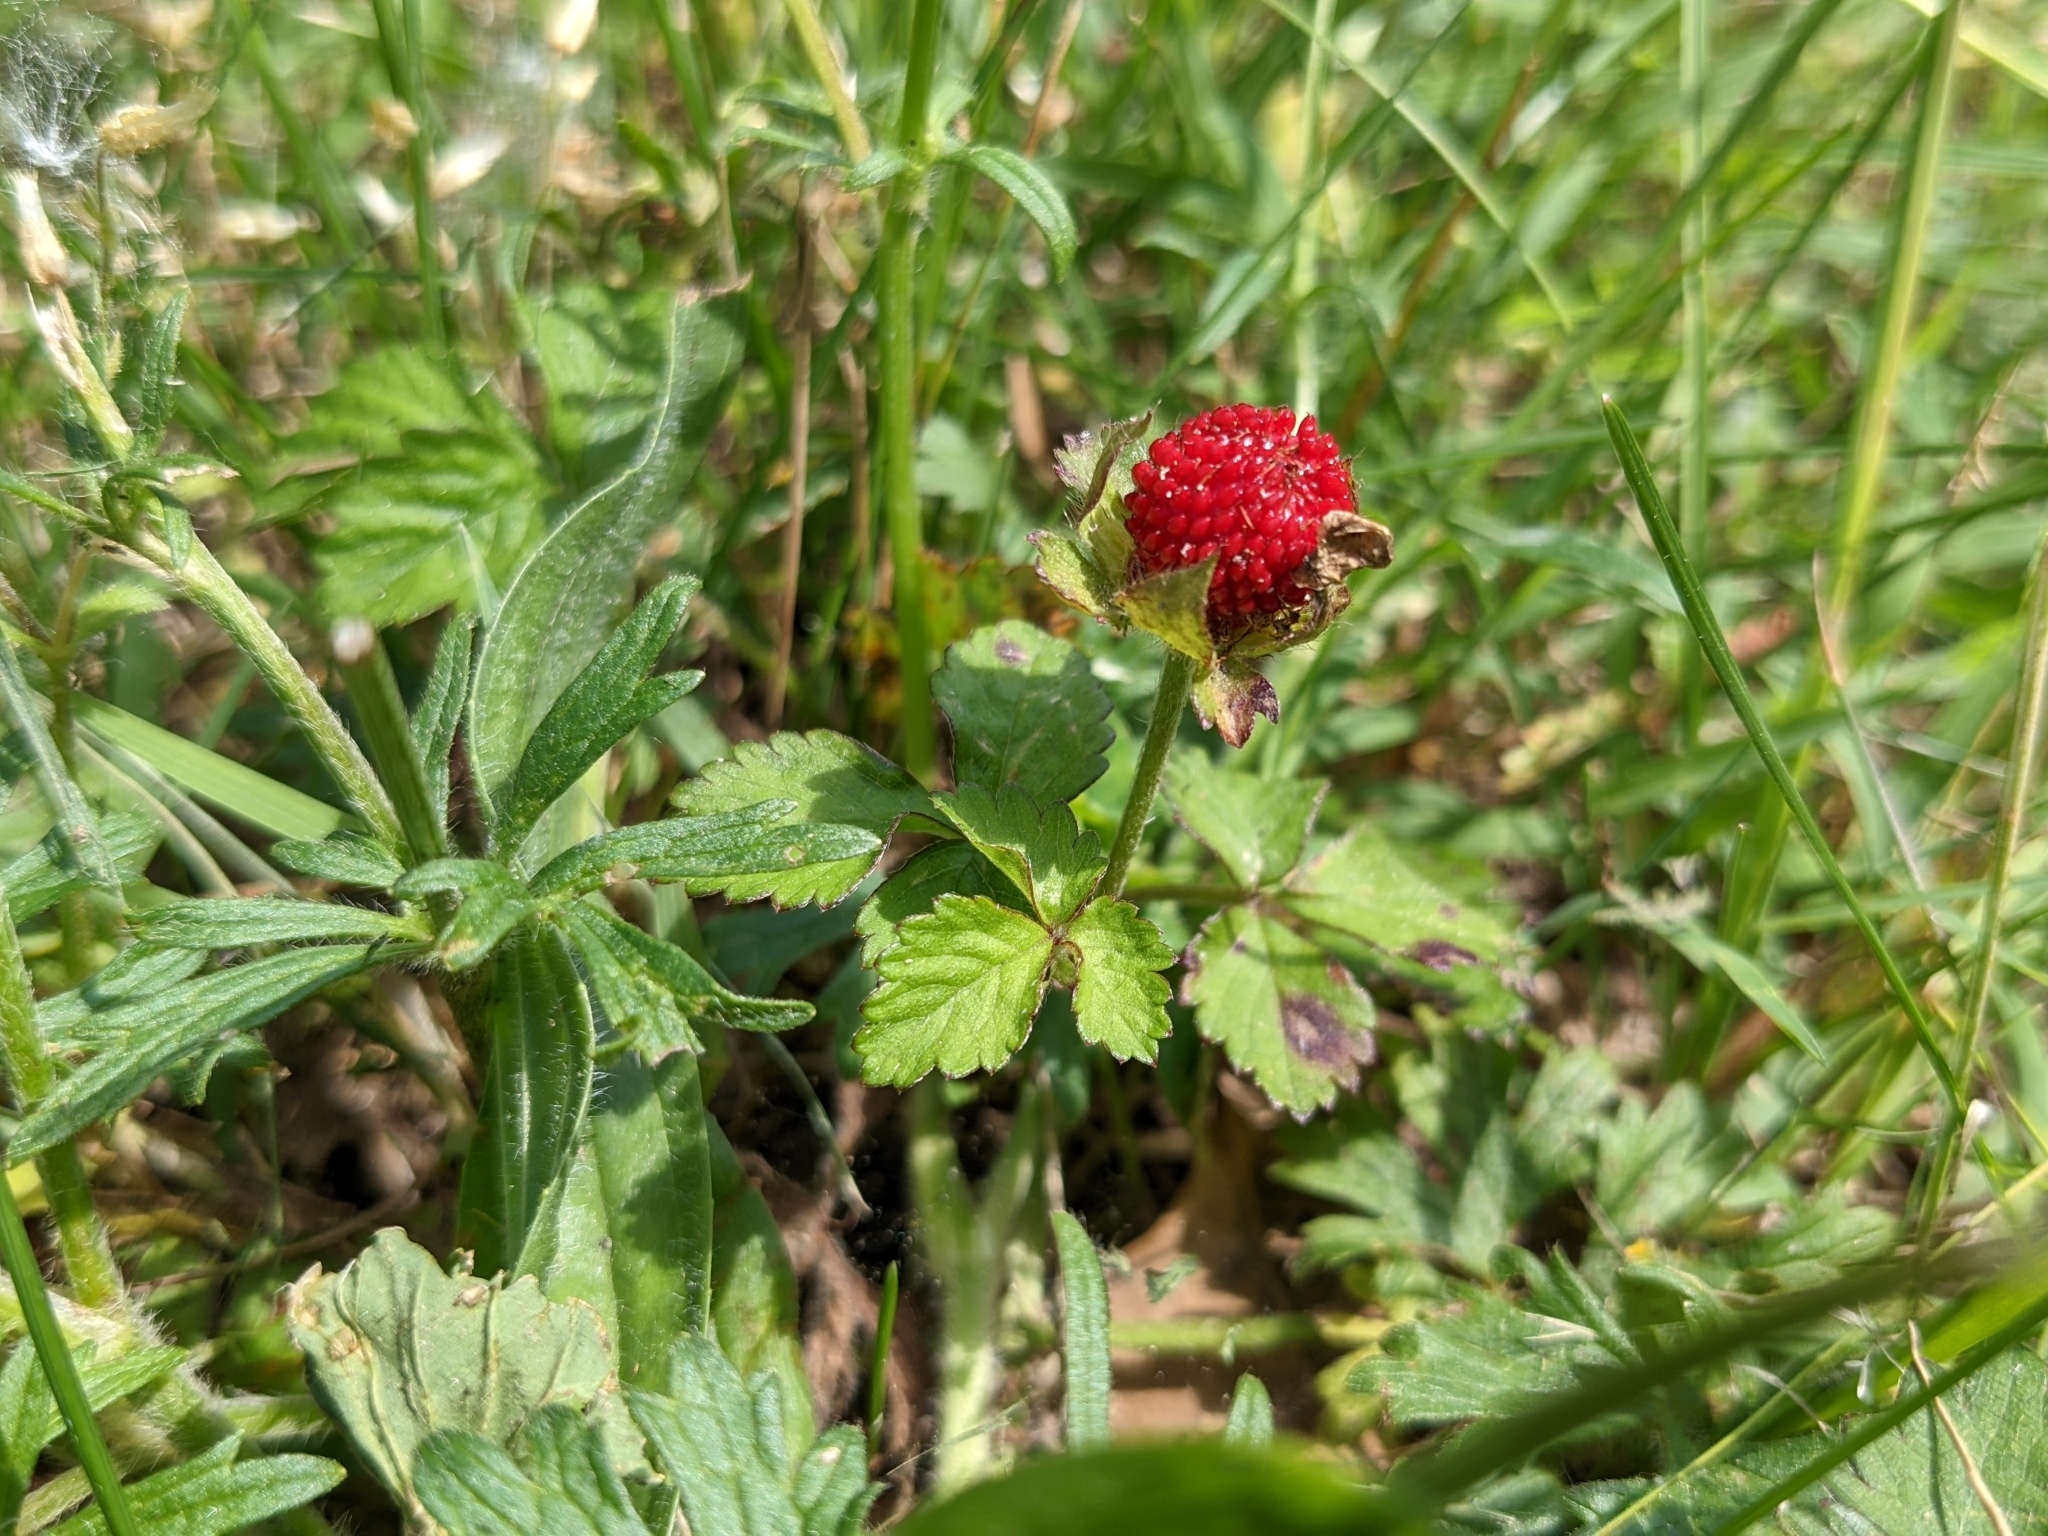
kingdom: Plantae
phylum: Tracheophyta
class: Magnoliopsida
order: Rosales
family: Rosaceae
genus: Potentilla
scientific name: Potentilla indica
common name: Yellow-flowered strawberry
